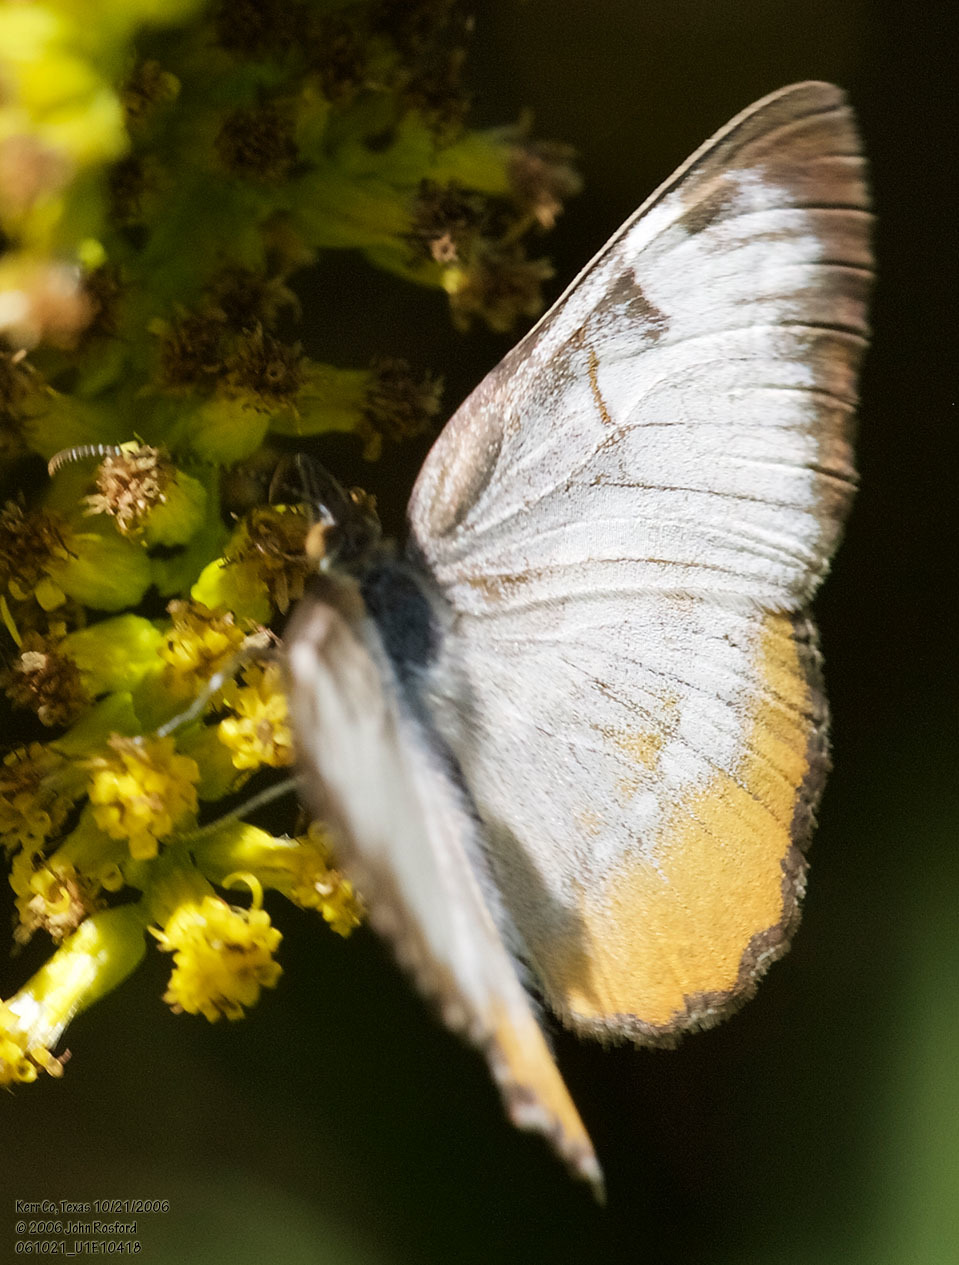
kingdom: Animalia
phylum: Arthropoda
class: Insecta
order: Lepidoptera
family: Nymphalidae
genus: Mestra
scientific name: Mestra amymone
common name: Common mestra
